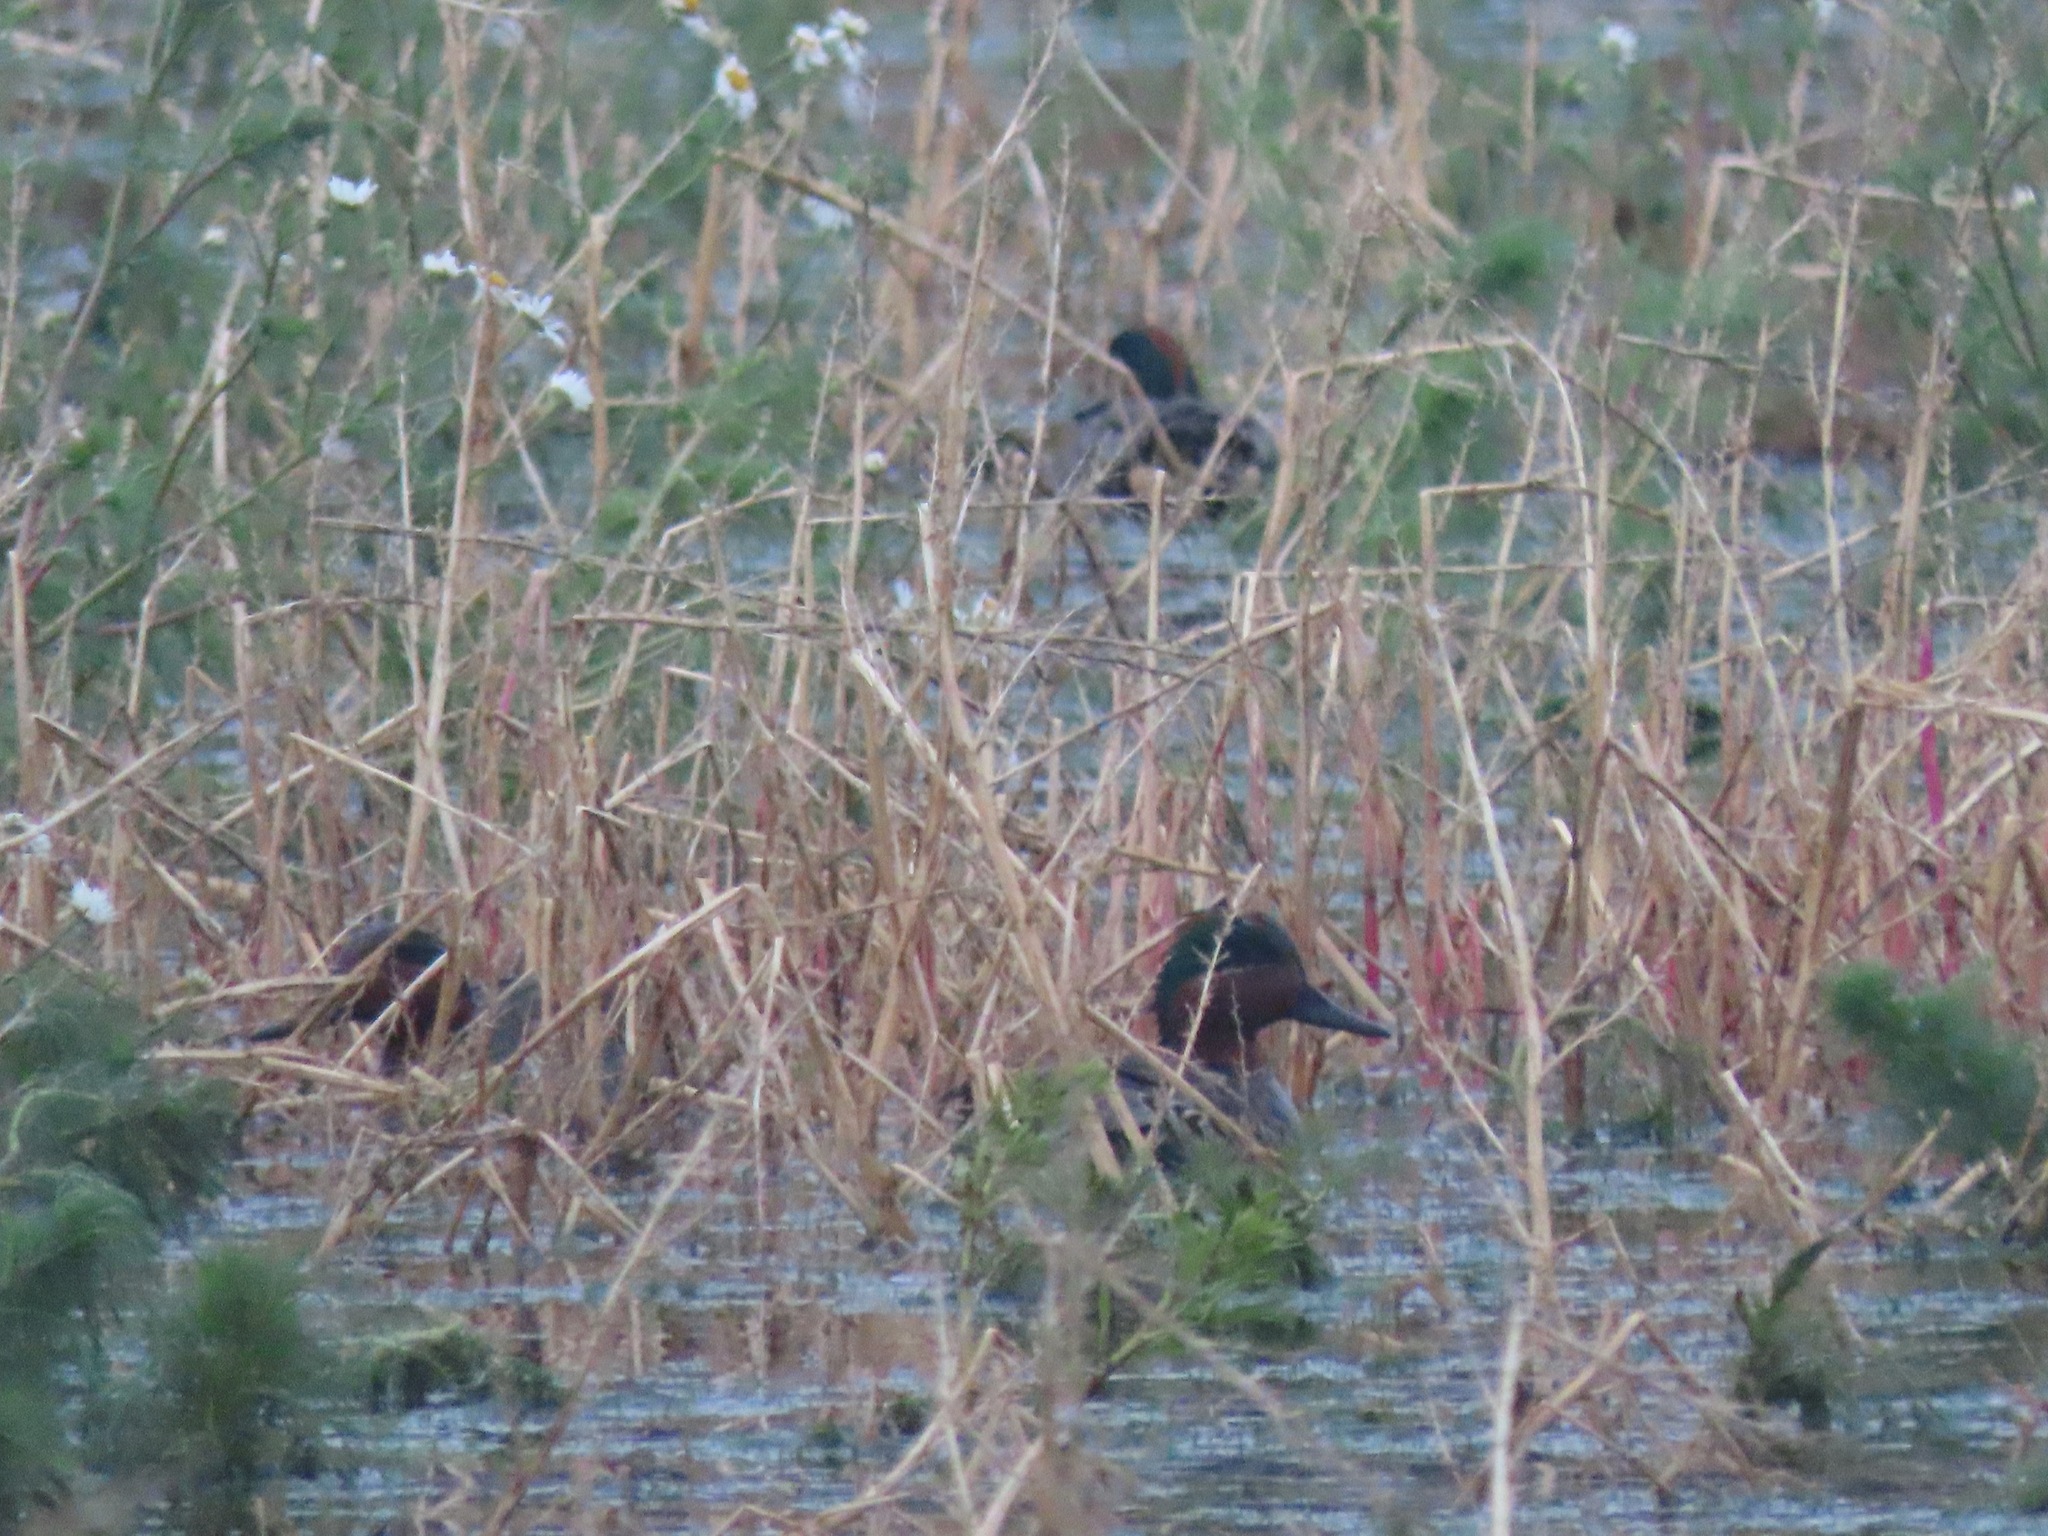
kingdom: Animalia
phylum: Chordata
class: Aves
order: Anseriformes
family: Anatidae
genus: Anas
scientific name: Anas crecca
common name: Eurasian teal
